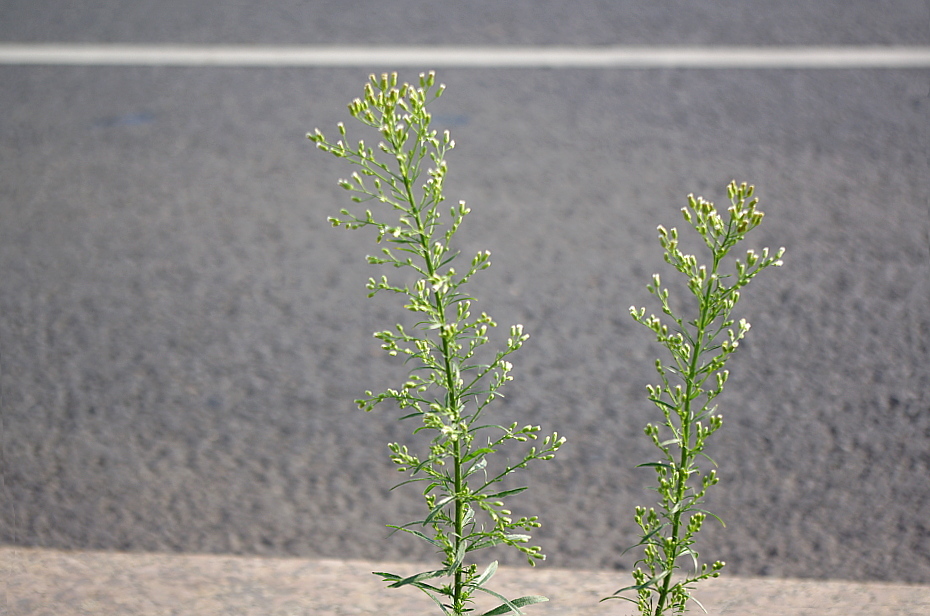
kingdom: Plantae
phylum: Tracheophyta
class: Magnoliopsida
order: Asterales
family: Asteraceae
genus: Erigeron
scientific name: Erigeron canadensis
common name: Canadian fleabane
